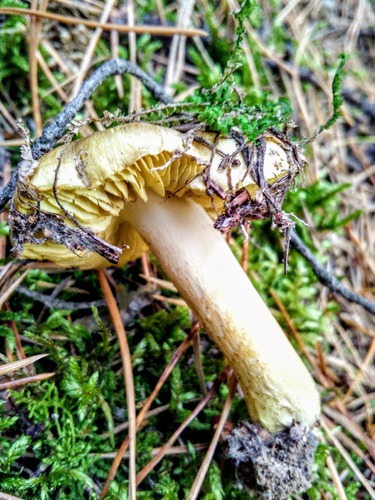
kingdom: Fungi
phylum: Basidiomycota
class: Agaricomycetes
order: Agaricales
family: Tricholomataceae
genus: Tricholoma
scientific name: Tricholoma
